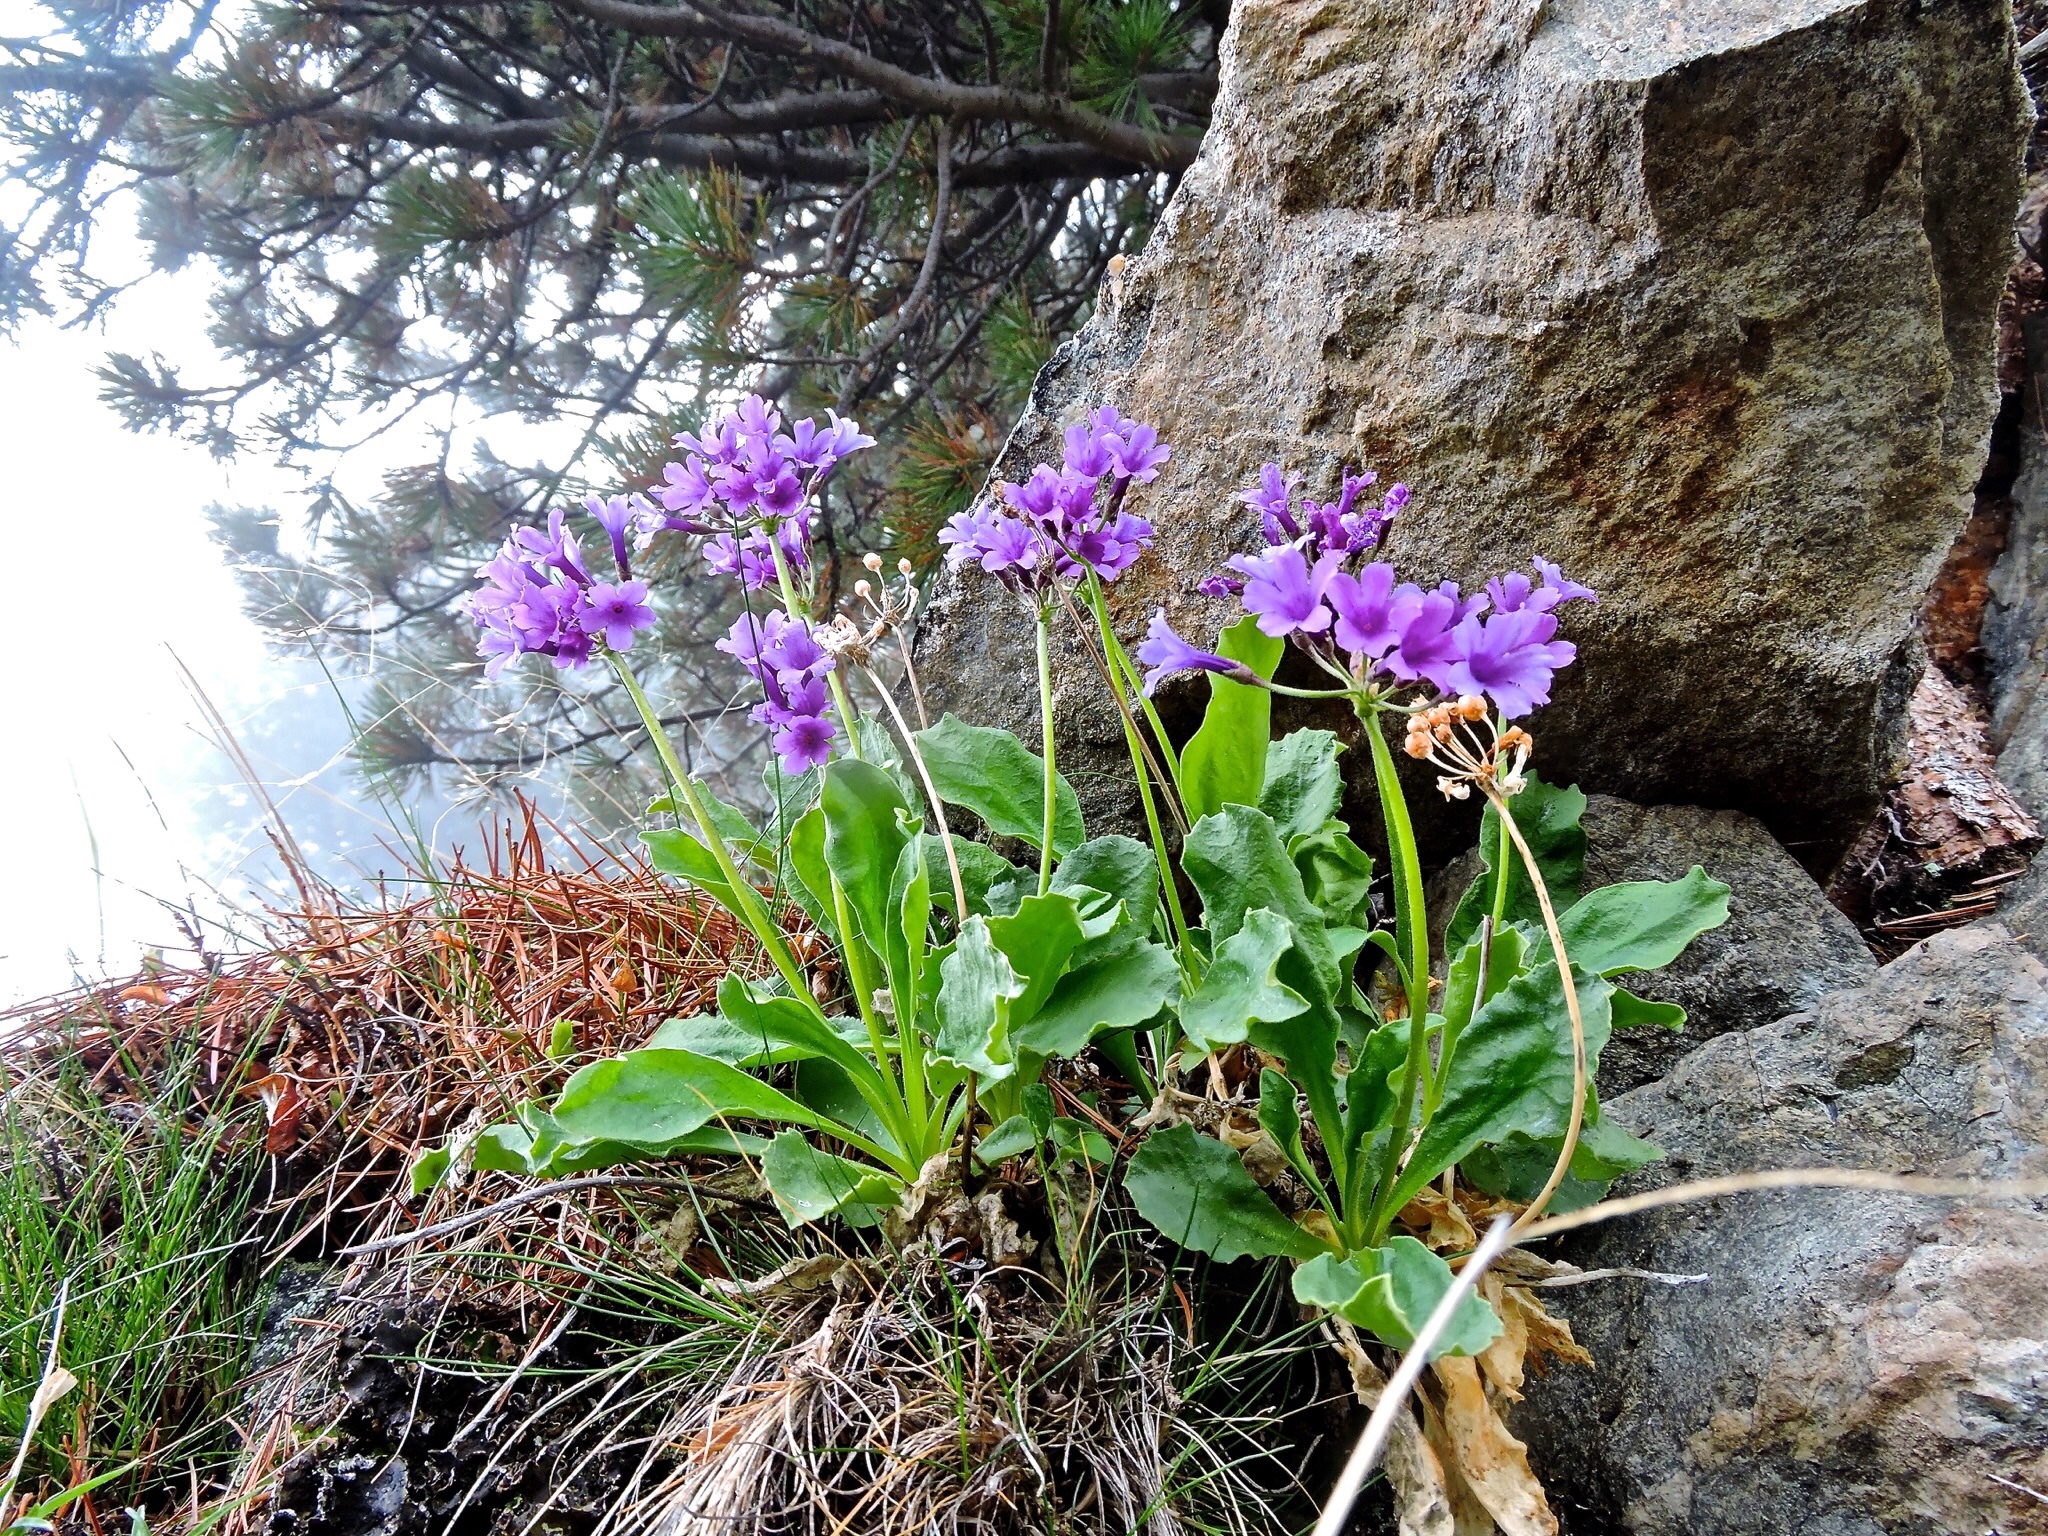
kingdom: Plantae
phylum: Tracheophyta
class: Magnoliopsida
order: Ericales
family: Primulaceae
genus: Primula
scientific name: Primula latifolia
